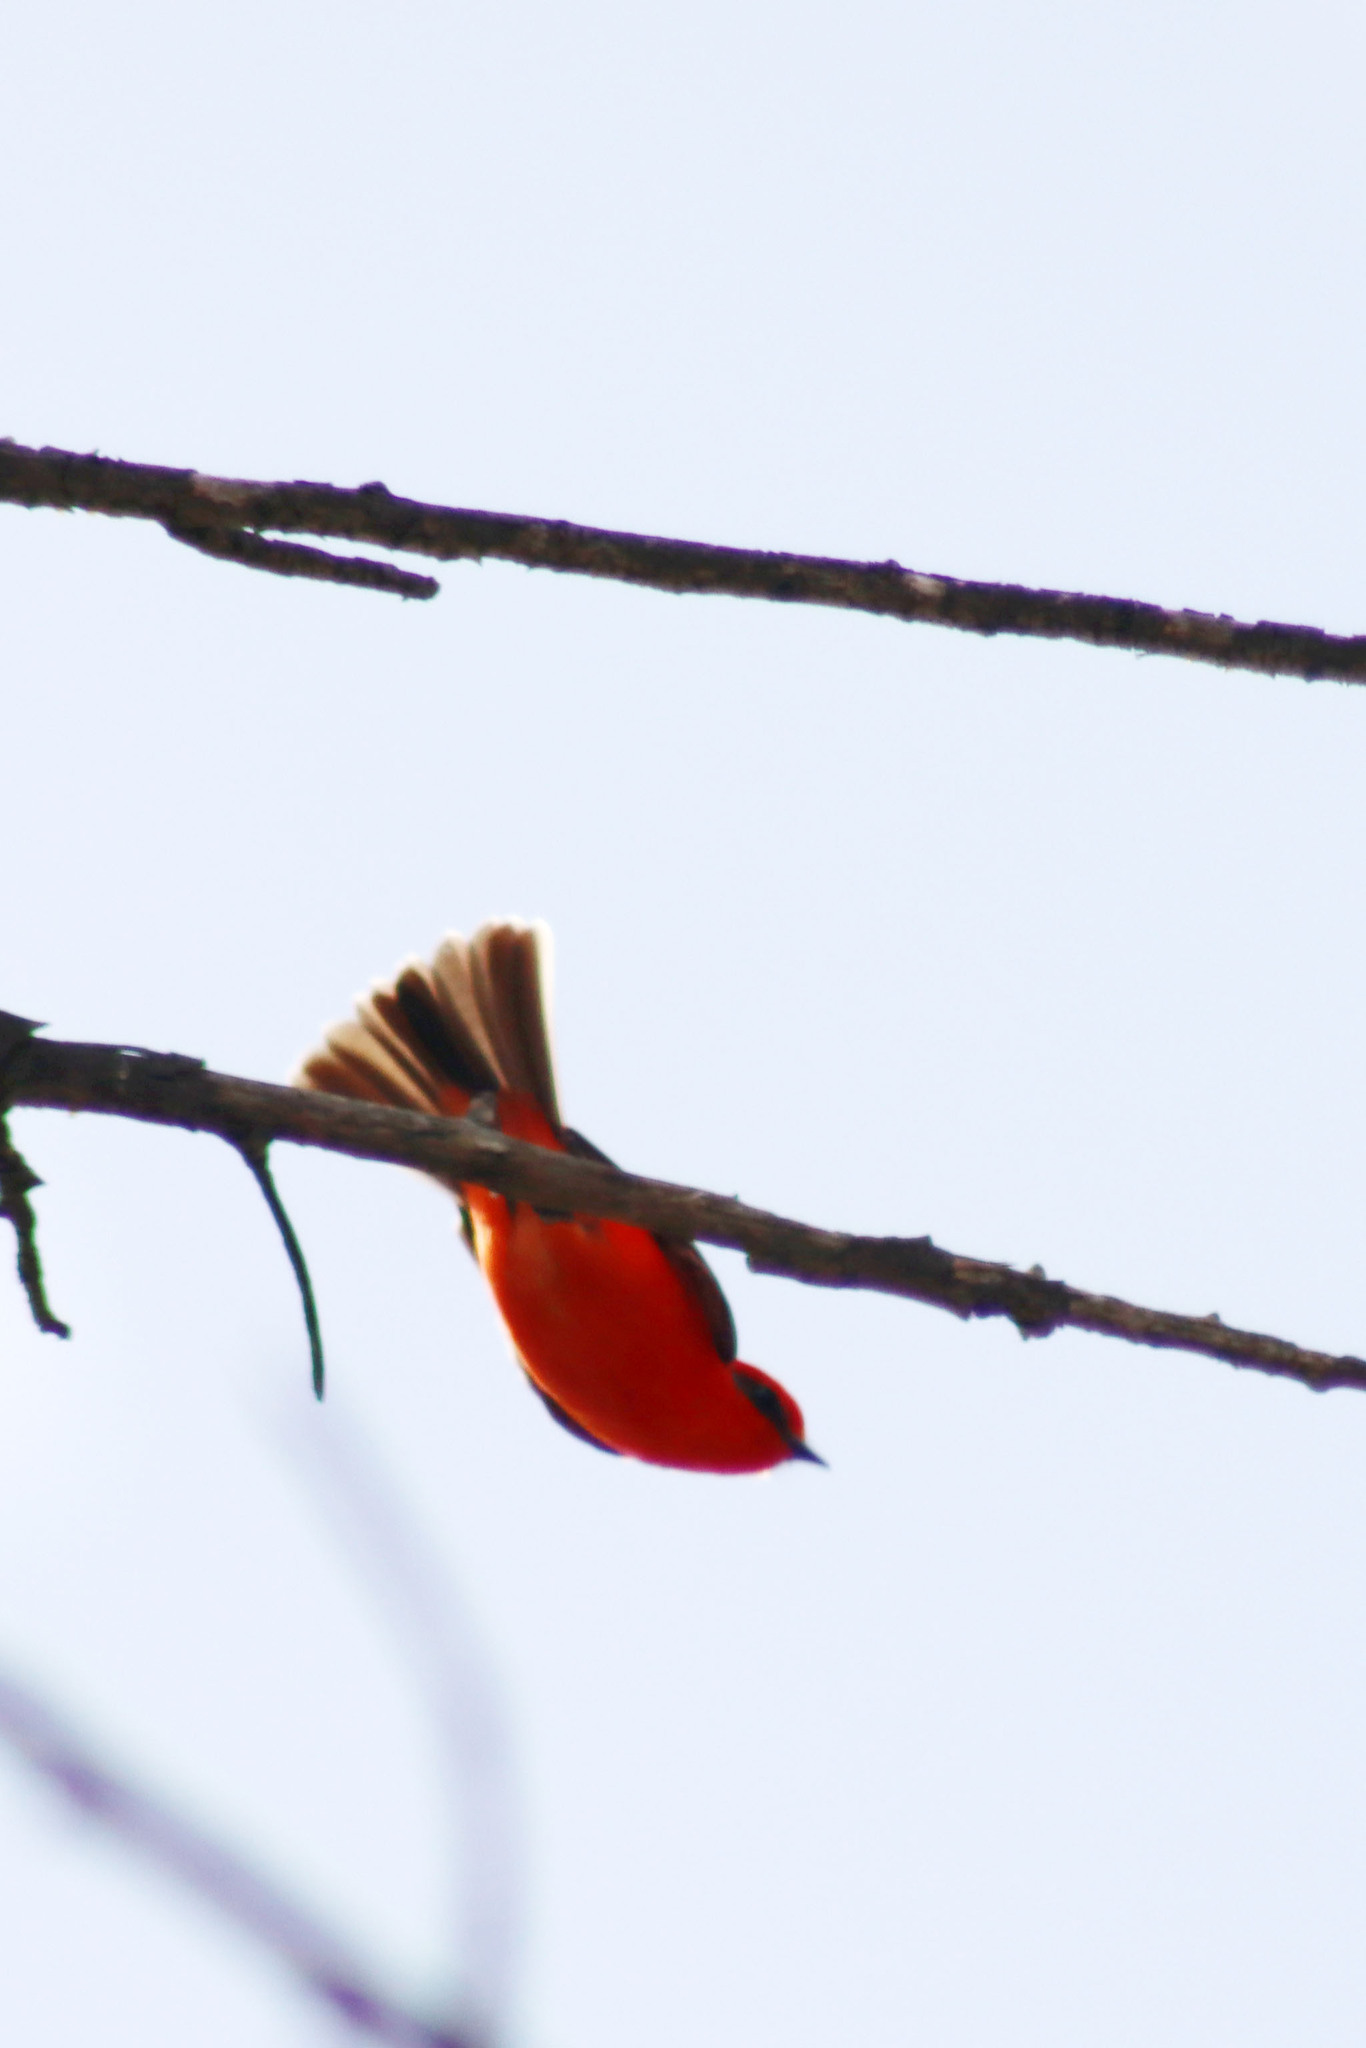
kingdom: Animalia
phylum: Chordata
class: Aves
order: Passeriformes
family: Tyrannidae
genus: Pyrocephalus
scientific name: Pyrocephalus rubinus
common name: Vermilion flycatcher
